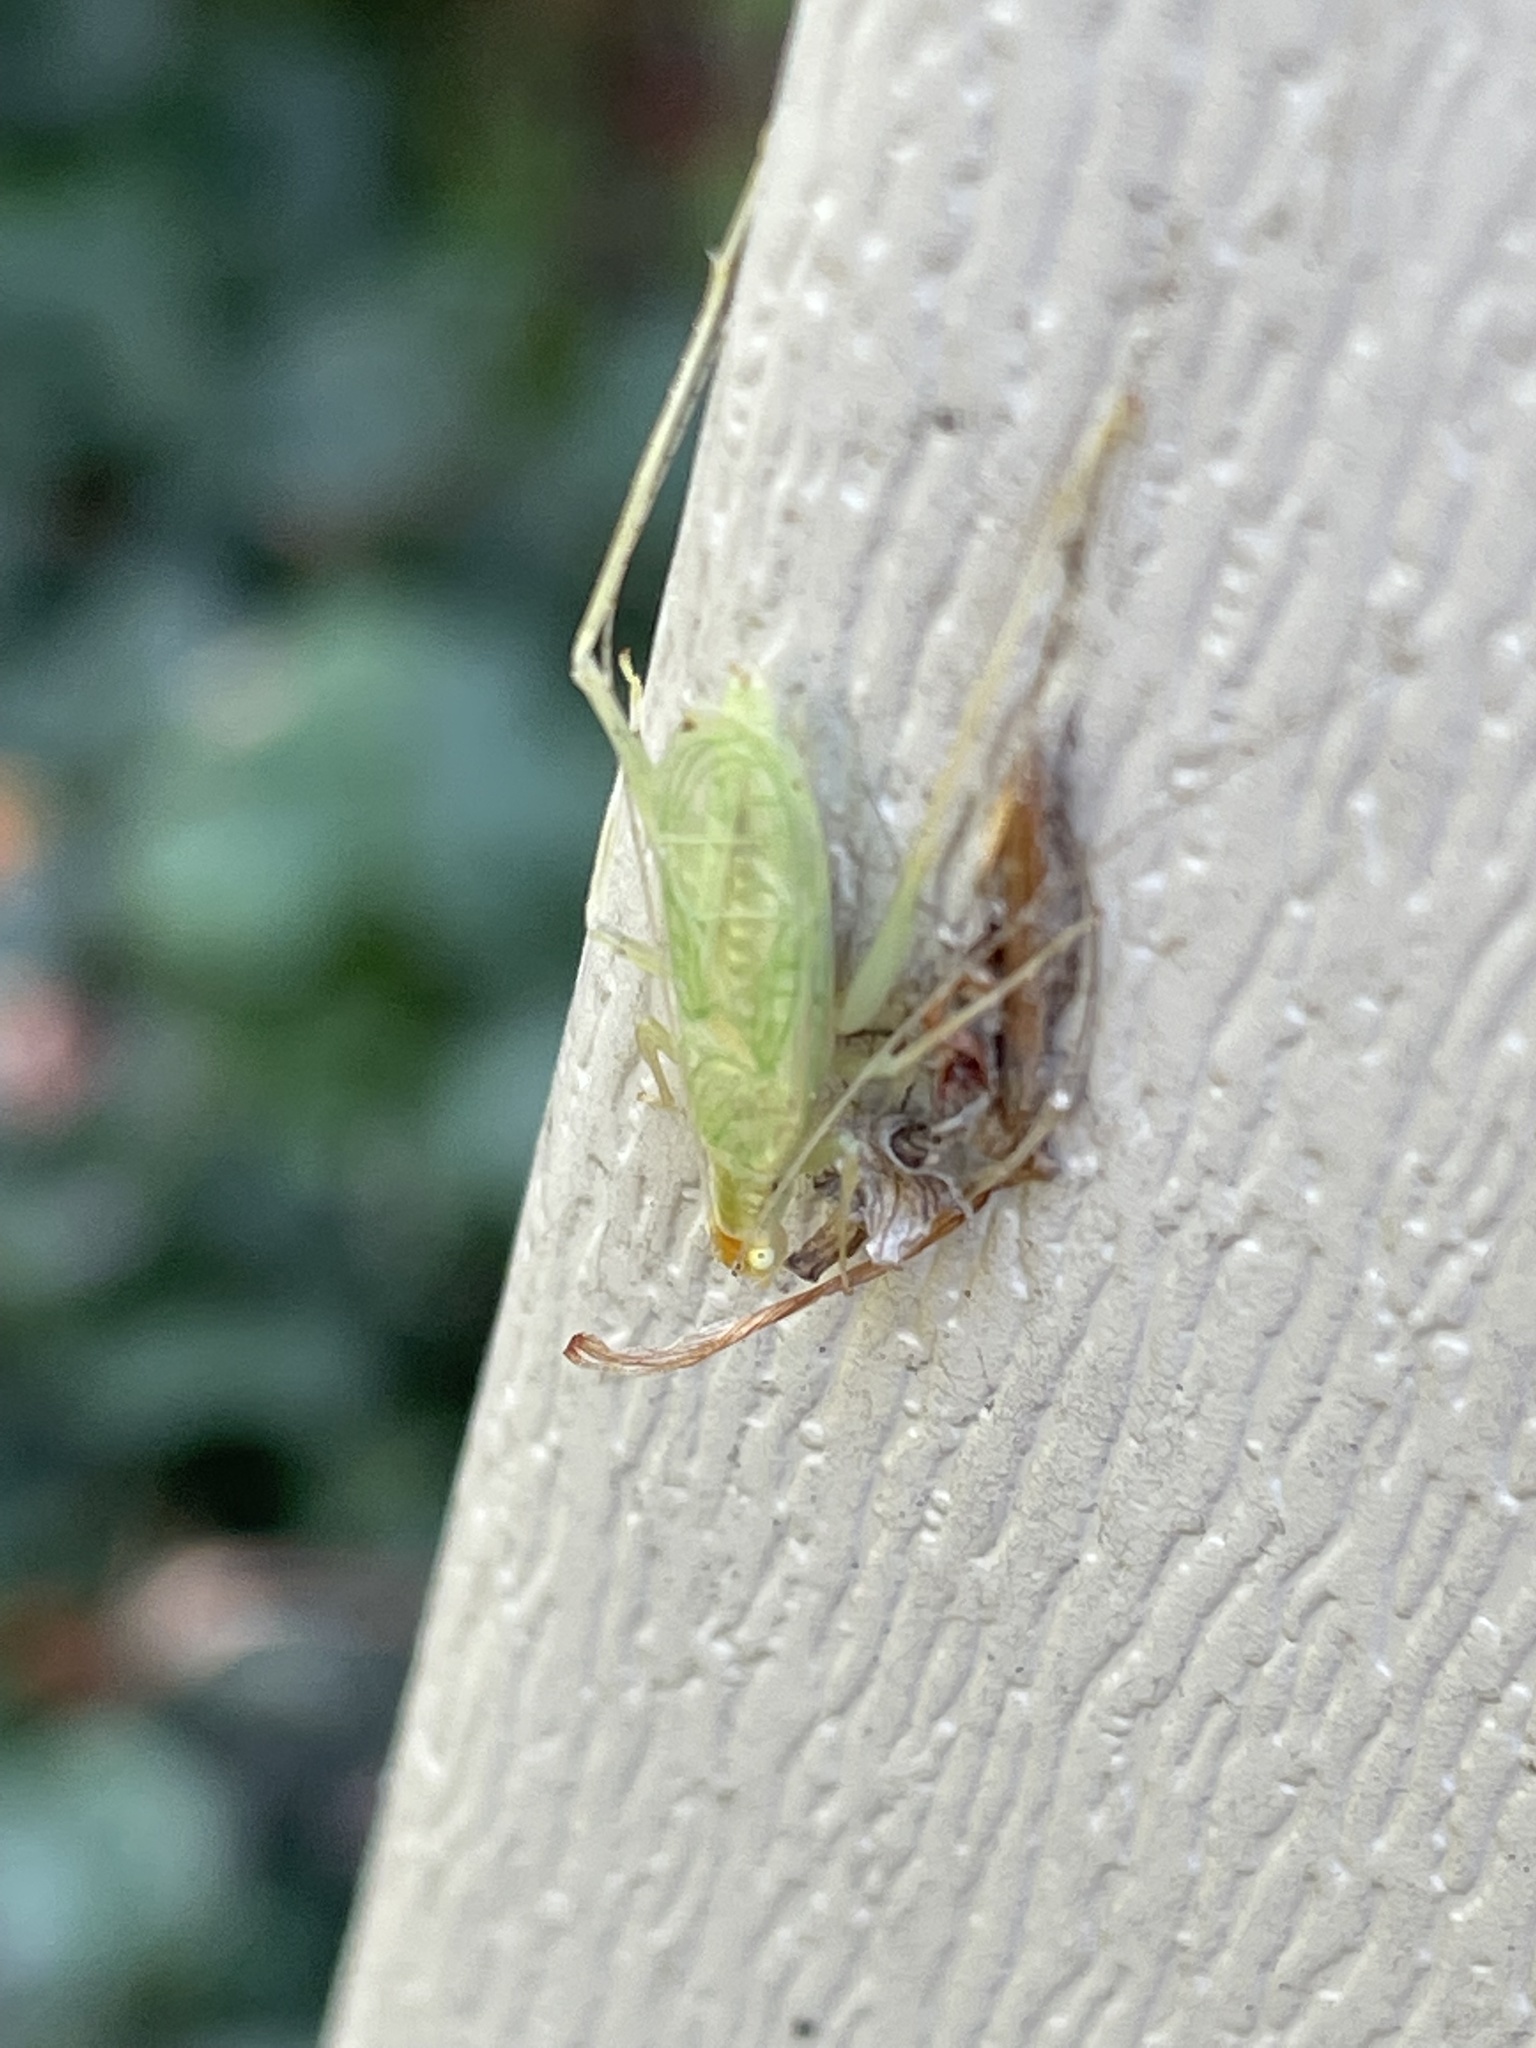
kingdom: Animalia
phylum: Arthropoda
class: Insecta
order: Orthoptera
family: Gryllidae
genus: Oecanthus
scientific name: Oecanthus fultoni
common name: Snowy tree cricket
